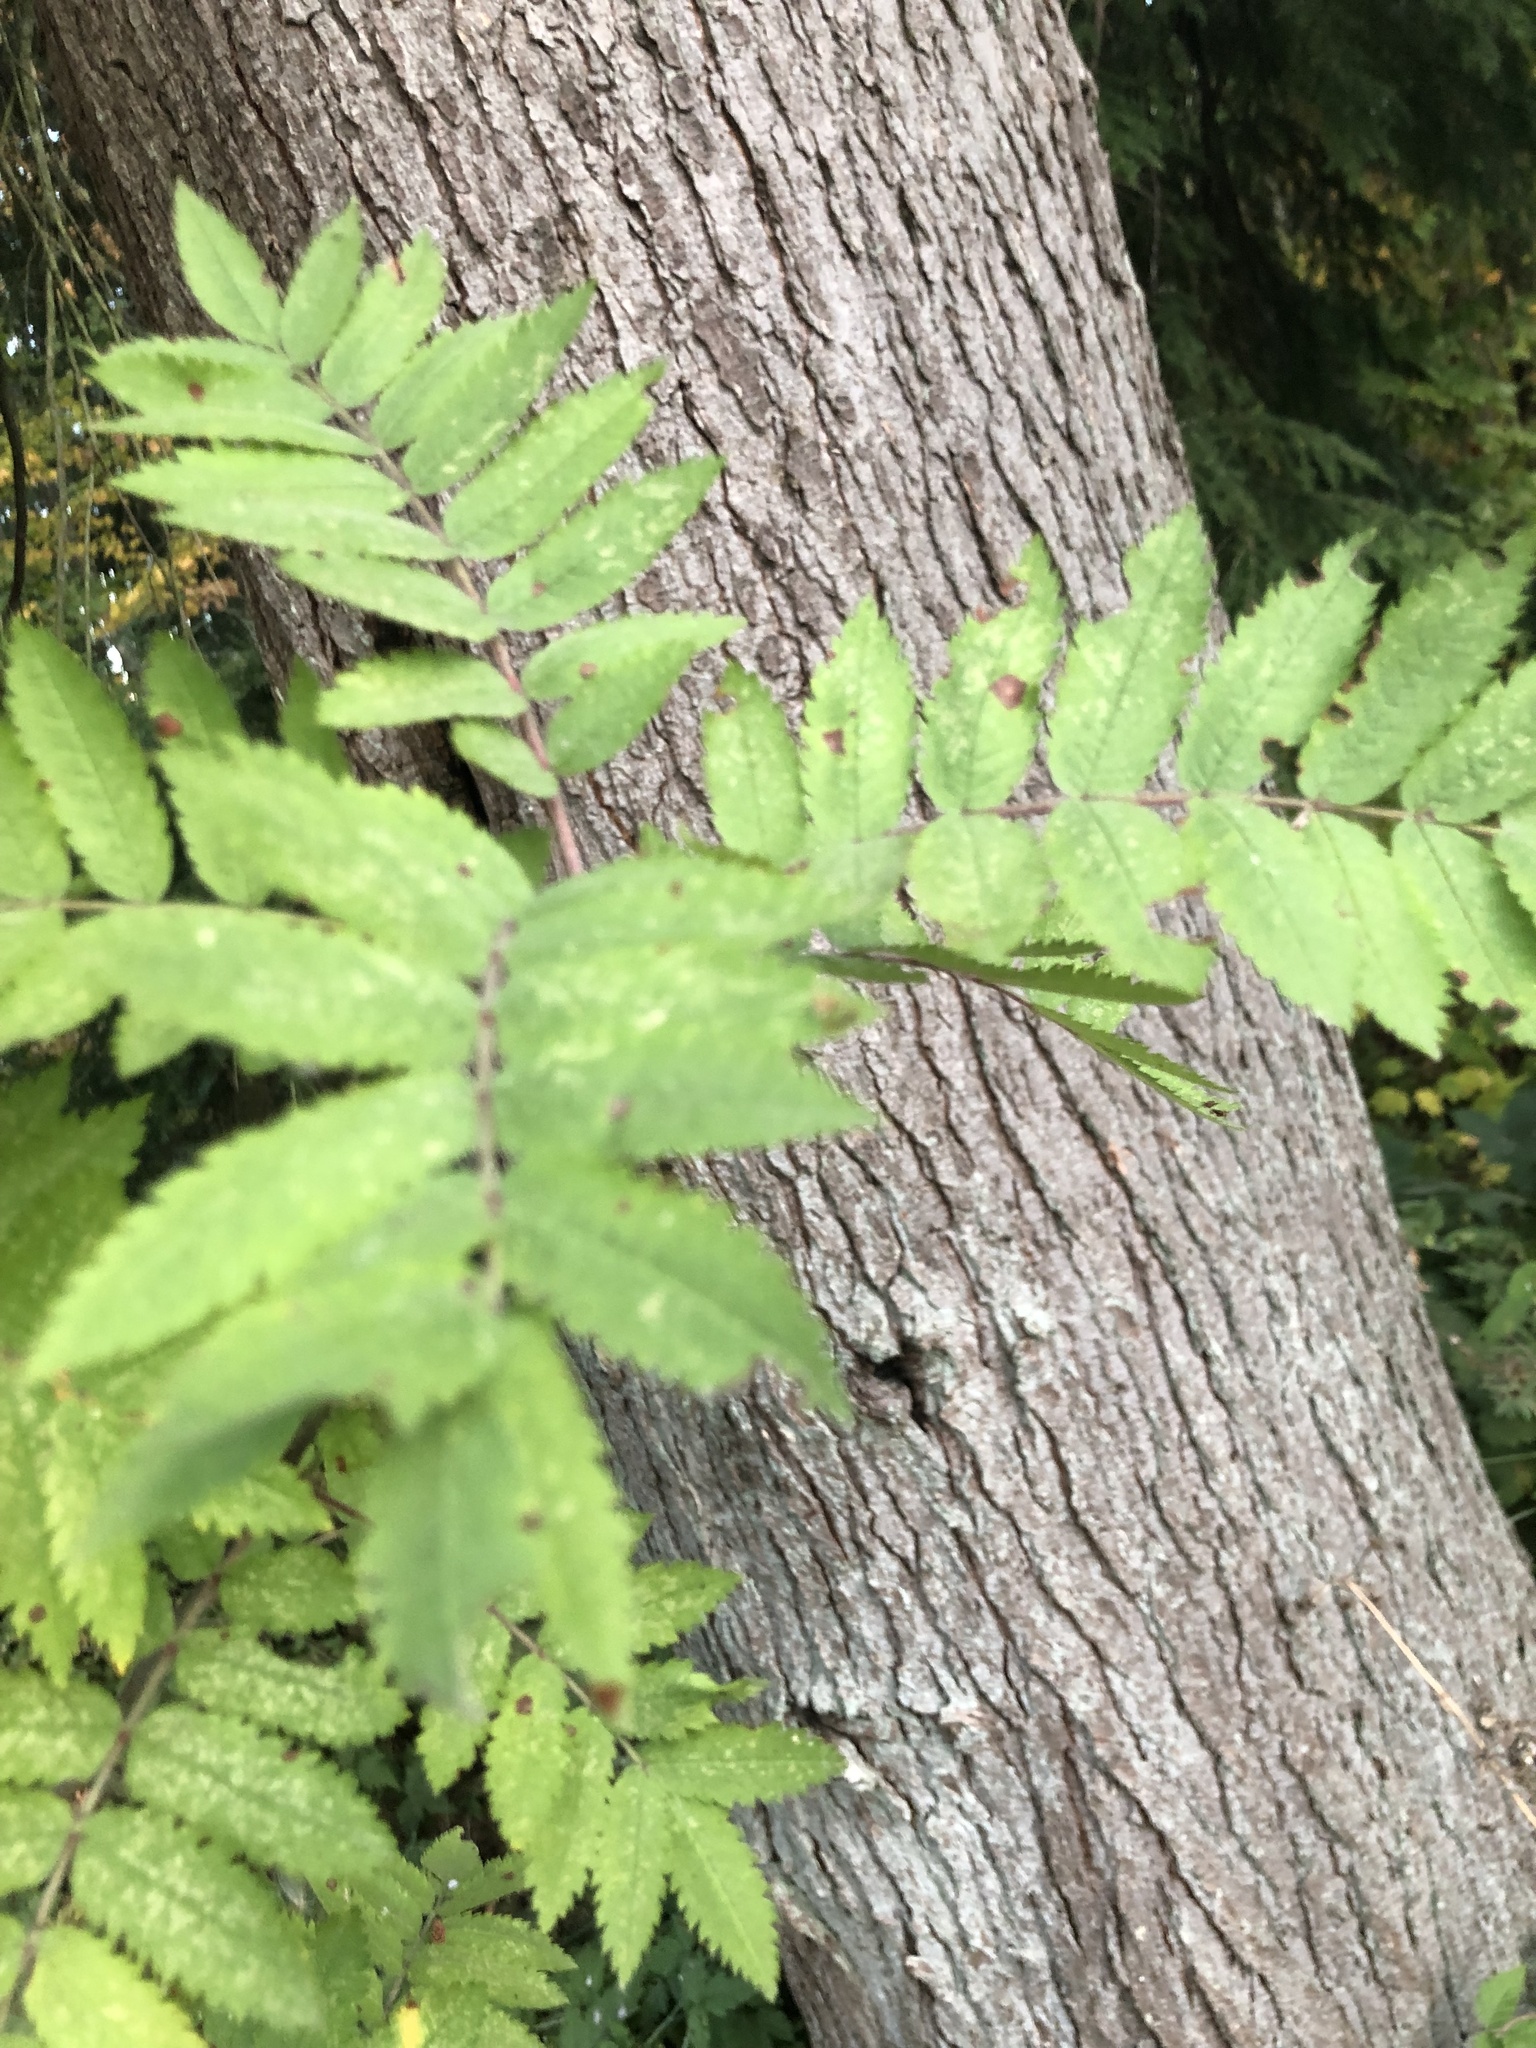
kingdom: Plantae
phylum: Tracheophyta
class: Magnoliopsida
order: Rosales
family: Rosaceae
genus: Sorbus
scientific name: Sorbus aucuparia
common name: Rowan
